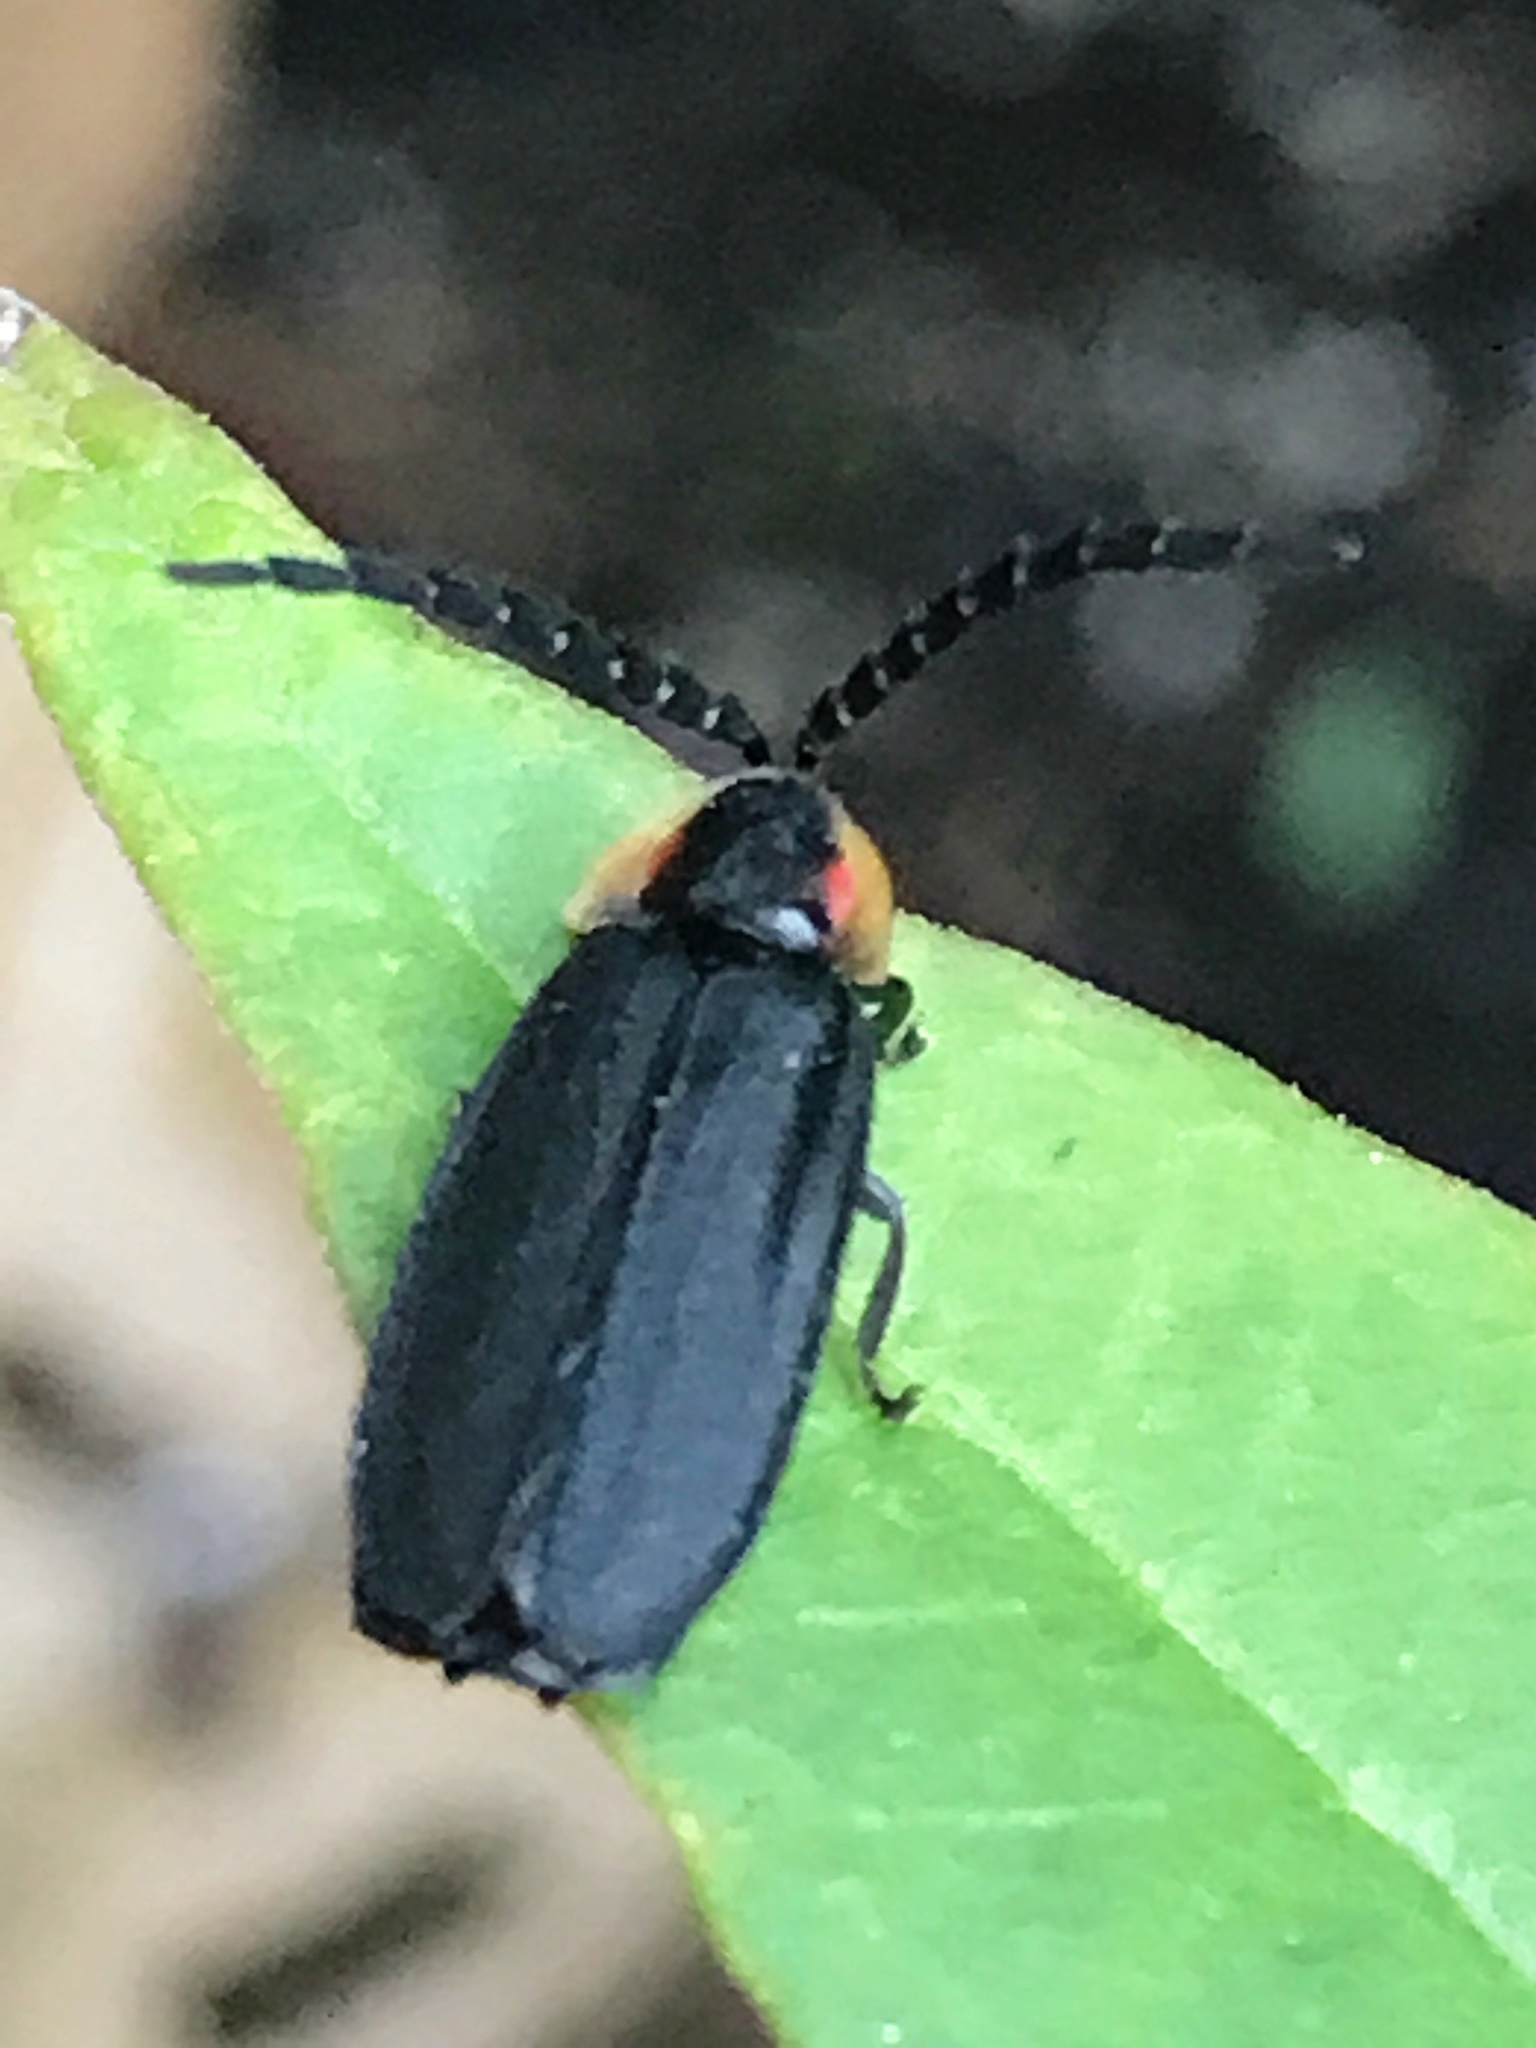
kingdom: Animalia
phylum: Arthropoda
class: Insecta
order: Coleoptera
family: Lampyridae
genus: Lucidota
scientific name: Lucidota atra
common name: Black firefly
